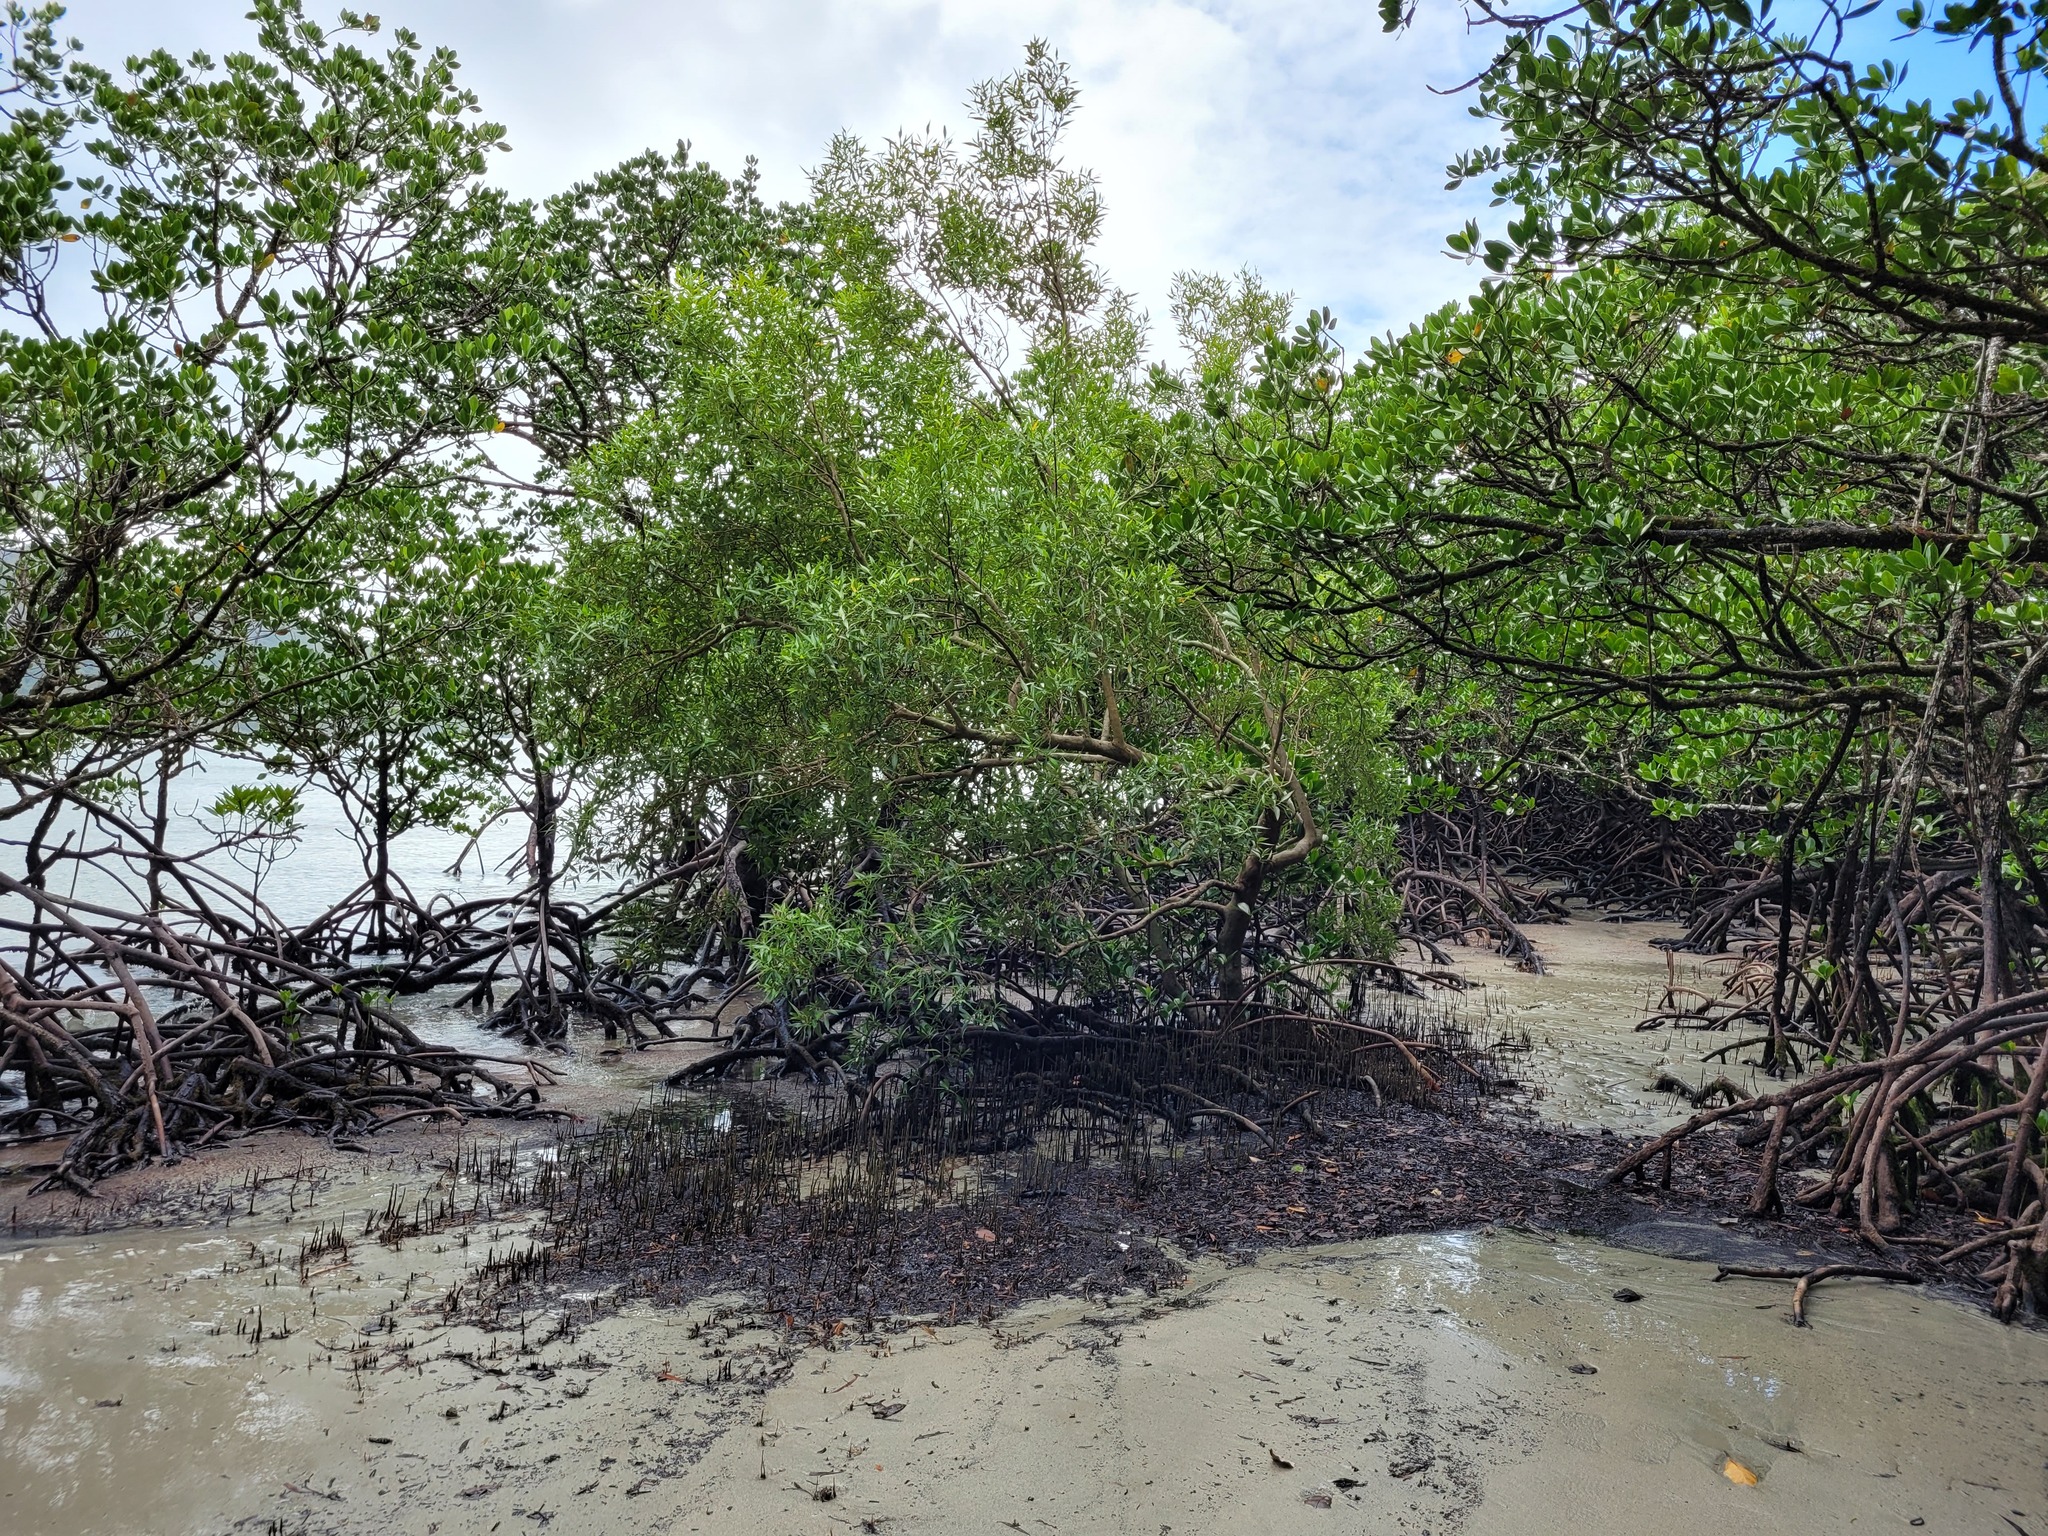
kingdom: Plantae
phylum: Tracheophyta
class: Magnoliopsida
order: Lamiales
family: Acanthaceae
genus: Avicennia
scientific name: Avicennia marina
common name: Gray mangrove
